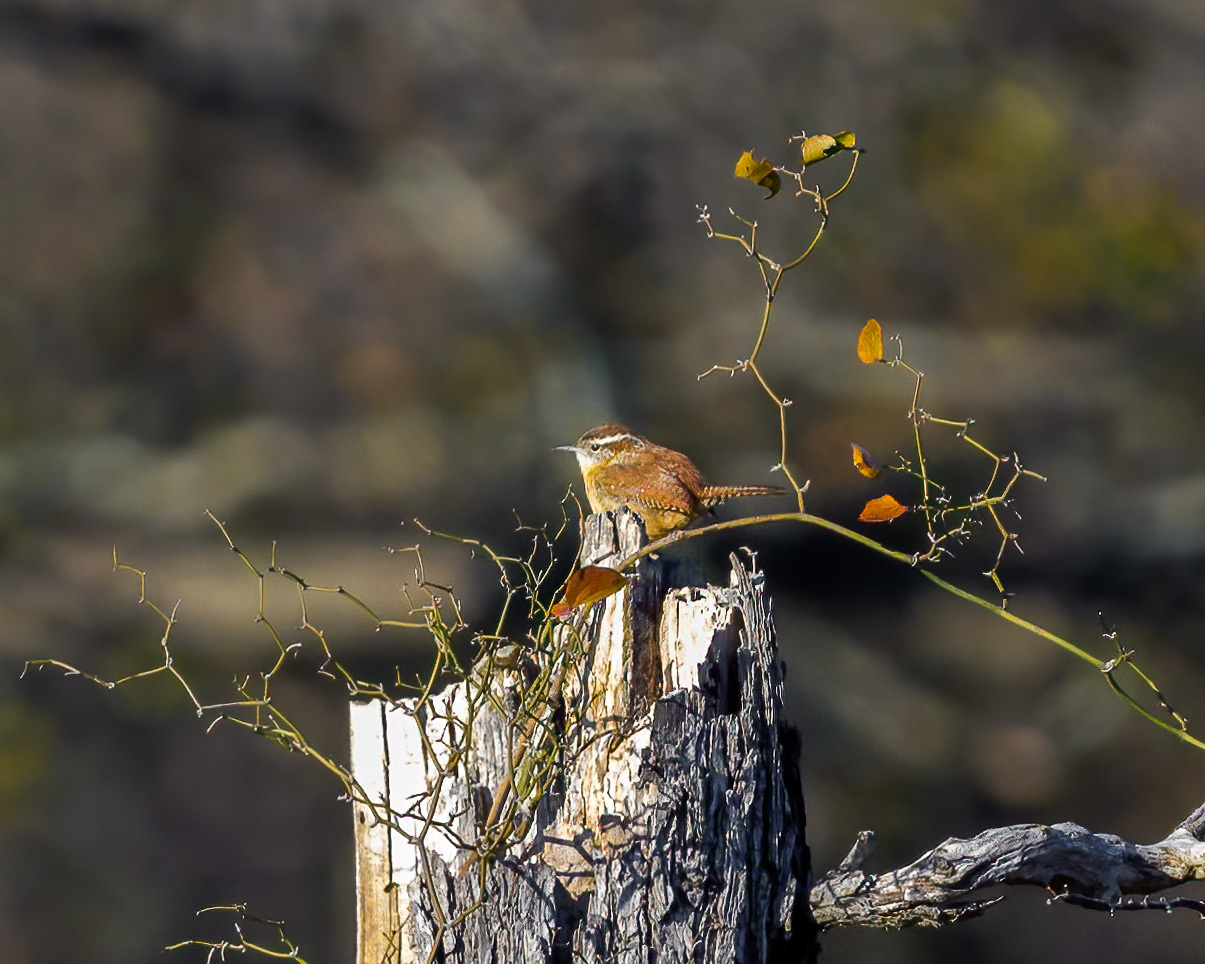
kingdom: Animalia
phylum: Chordata
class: Aves
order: Passeriformes
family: Troglodytidae
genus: Thryothorus
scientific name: Thryothorus ludovicianus
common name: Carolina wren
